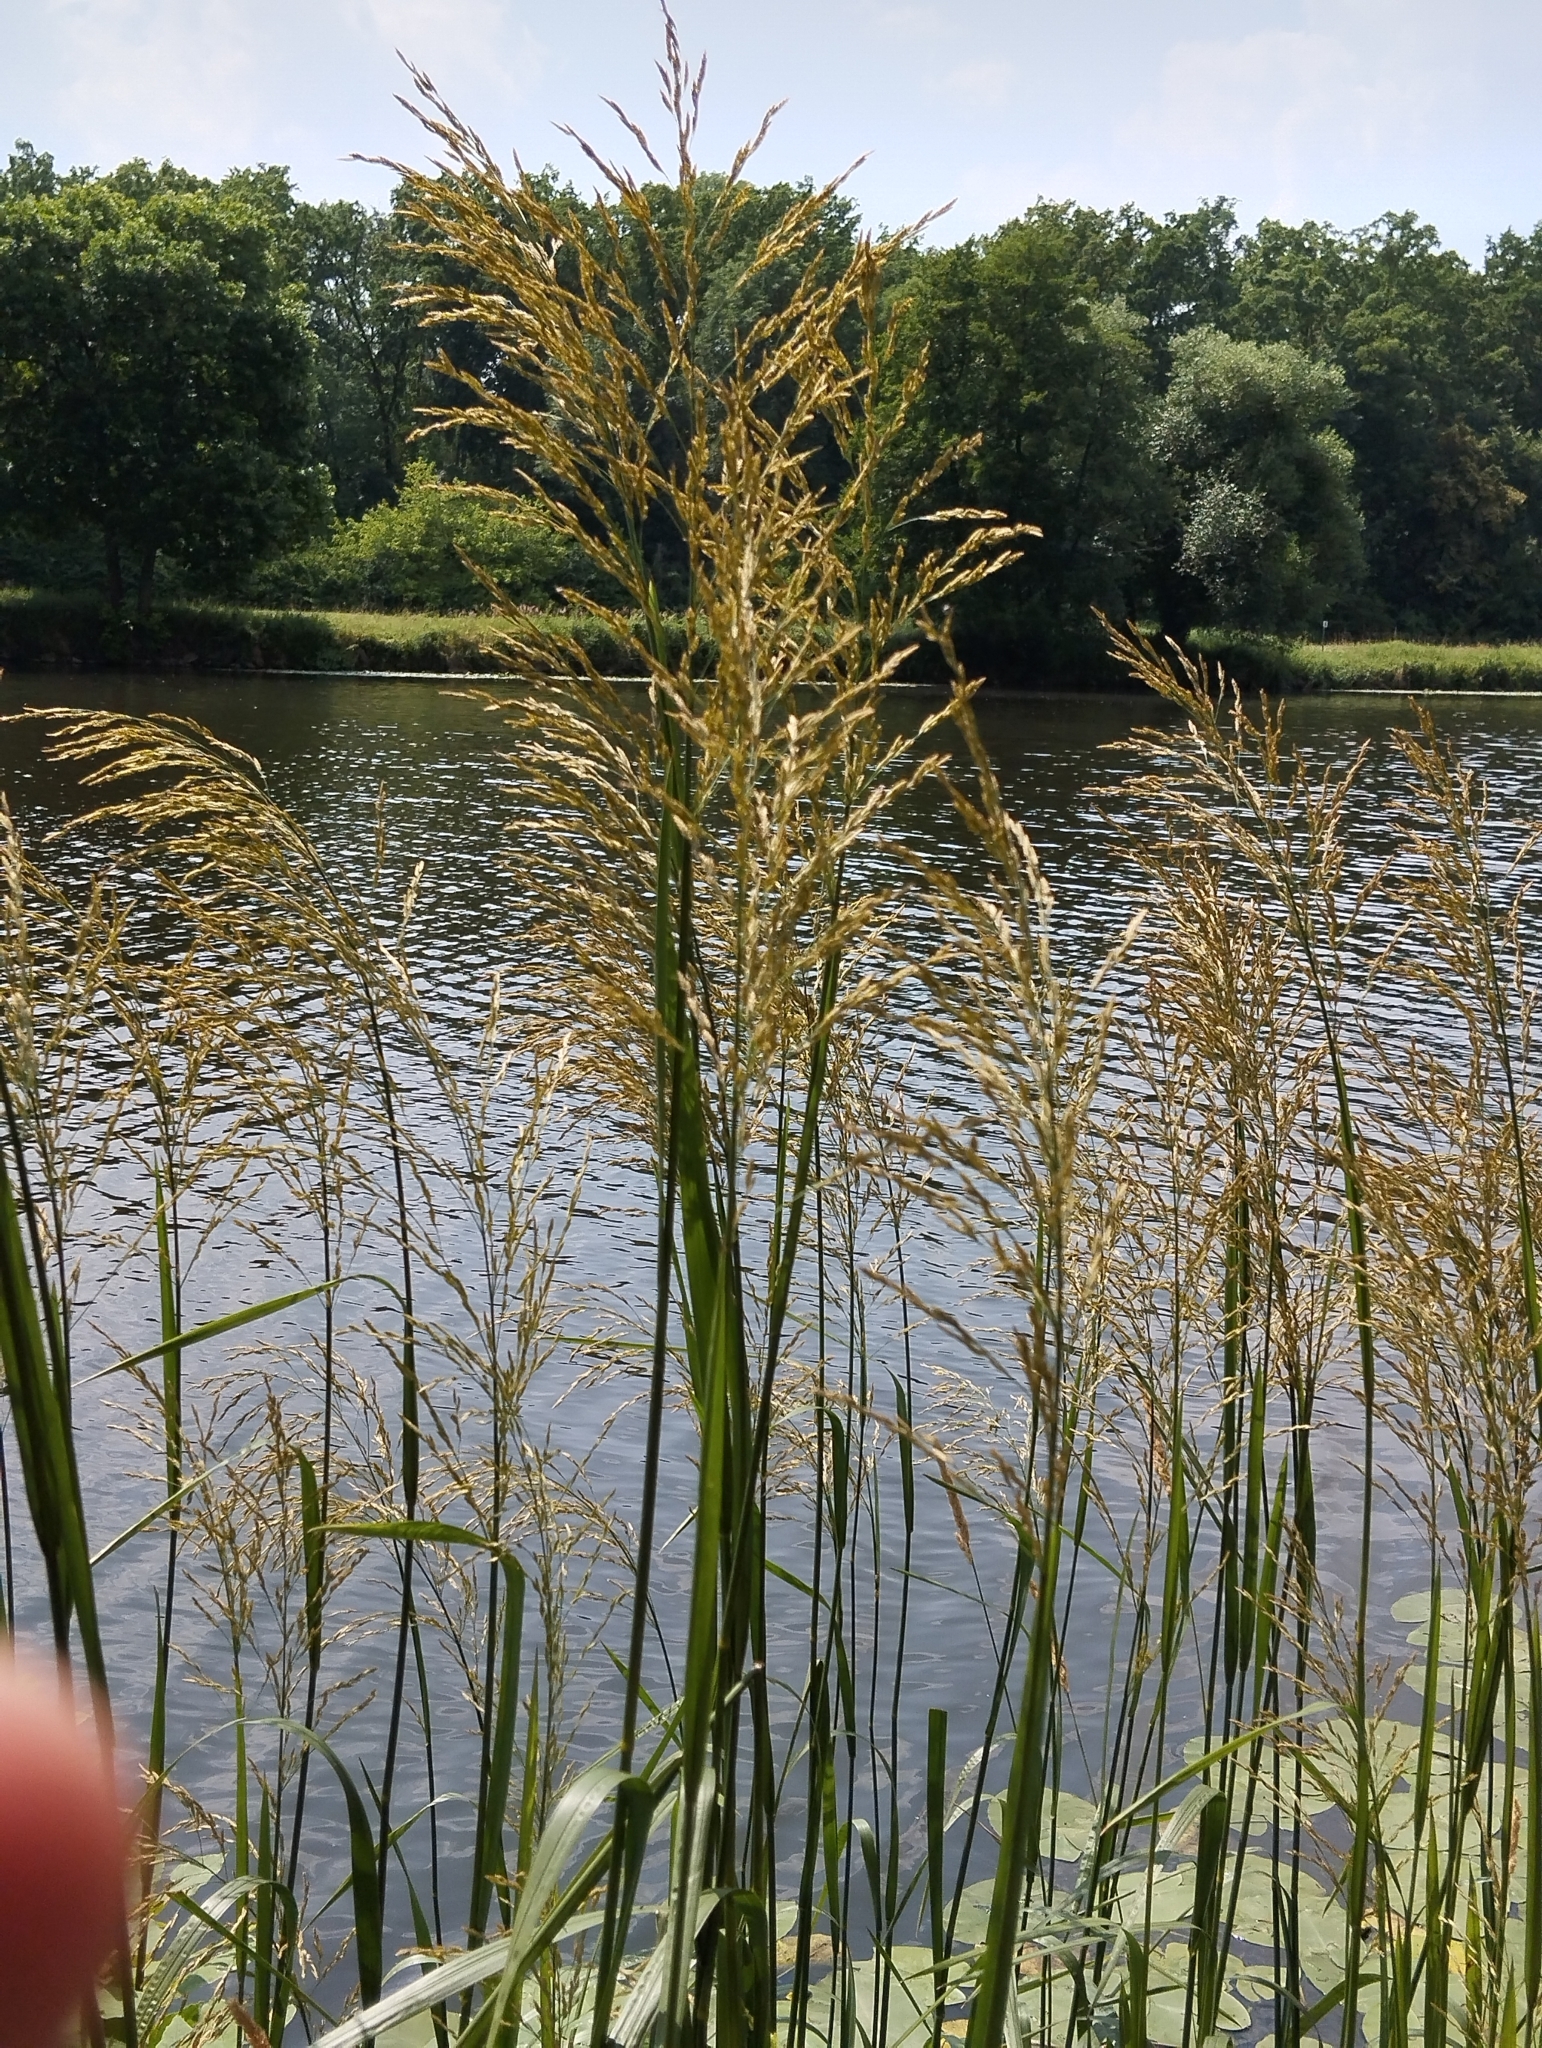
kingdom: Plantae
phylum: Tracheophyta
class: Liliopsida
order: Poales
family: Poaceae
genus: Glyceria
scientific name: Glyceria maxima
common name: Reed mannagrass
